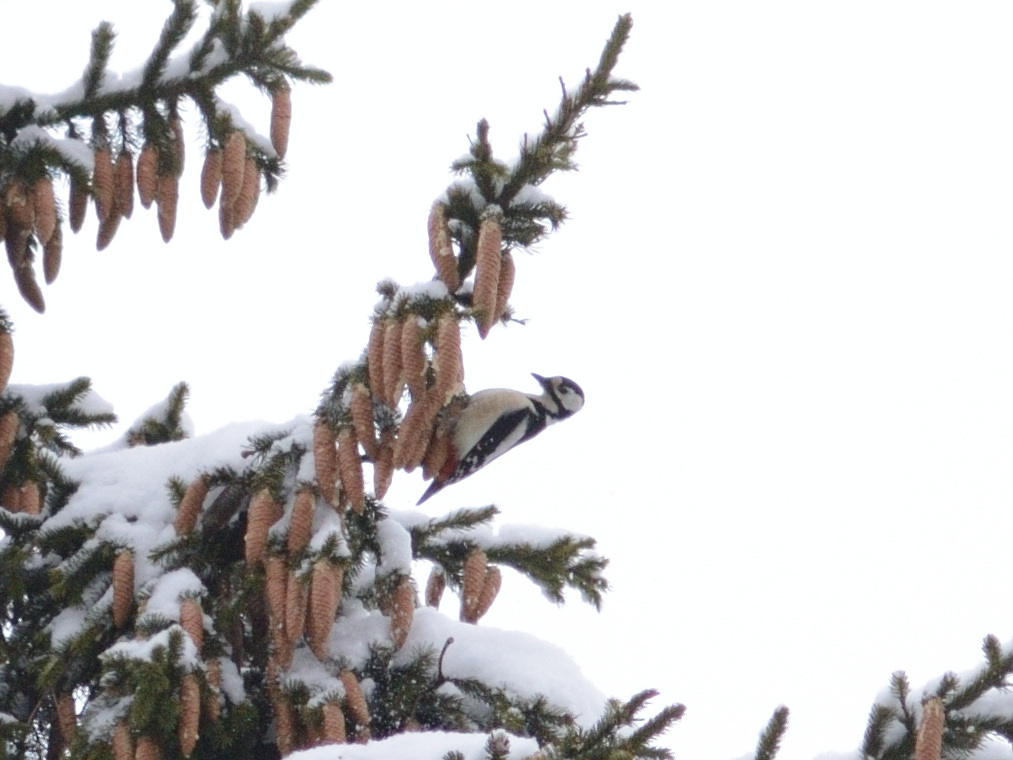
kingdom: Animalia
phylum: Chordata
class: Aves
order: Piciformes
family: Picidae
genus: Dendrocopos
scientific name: Dendrocopos major
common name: Great spotted woodpecker
